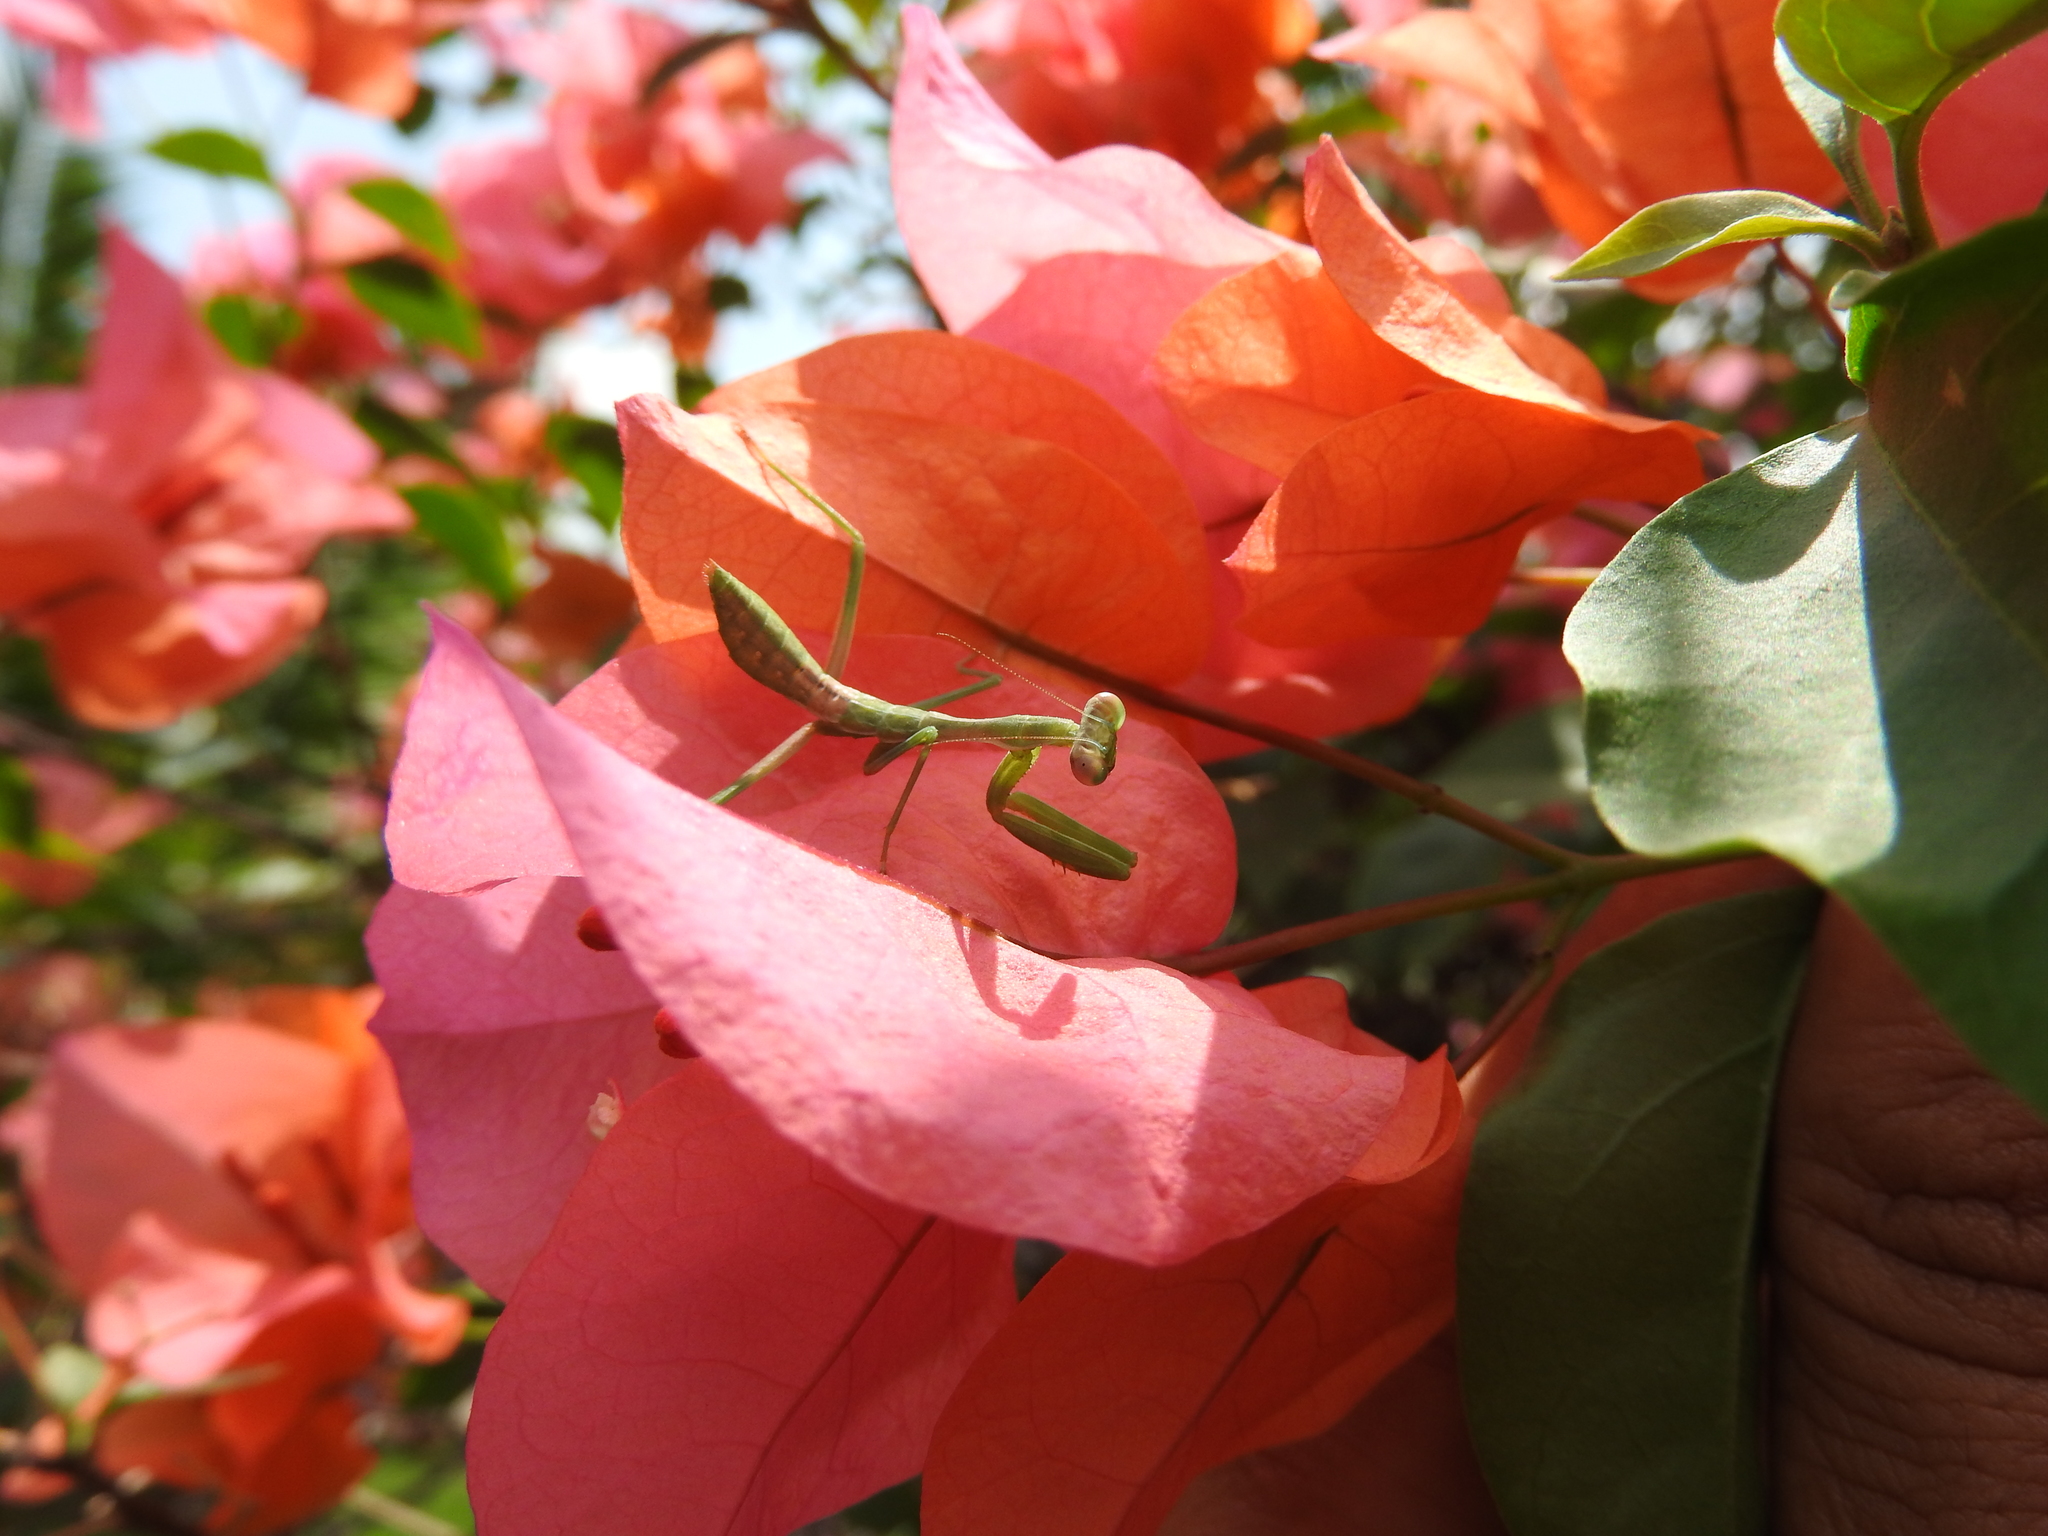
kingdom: Animalia
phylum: Arthropoda
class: Insecta
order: Mantodea
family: Mantidae
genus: Stagmomantis
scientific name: Stagmomantis limbata
